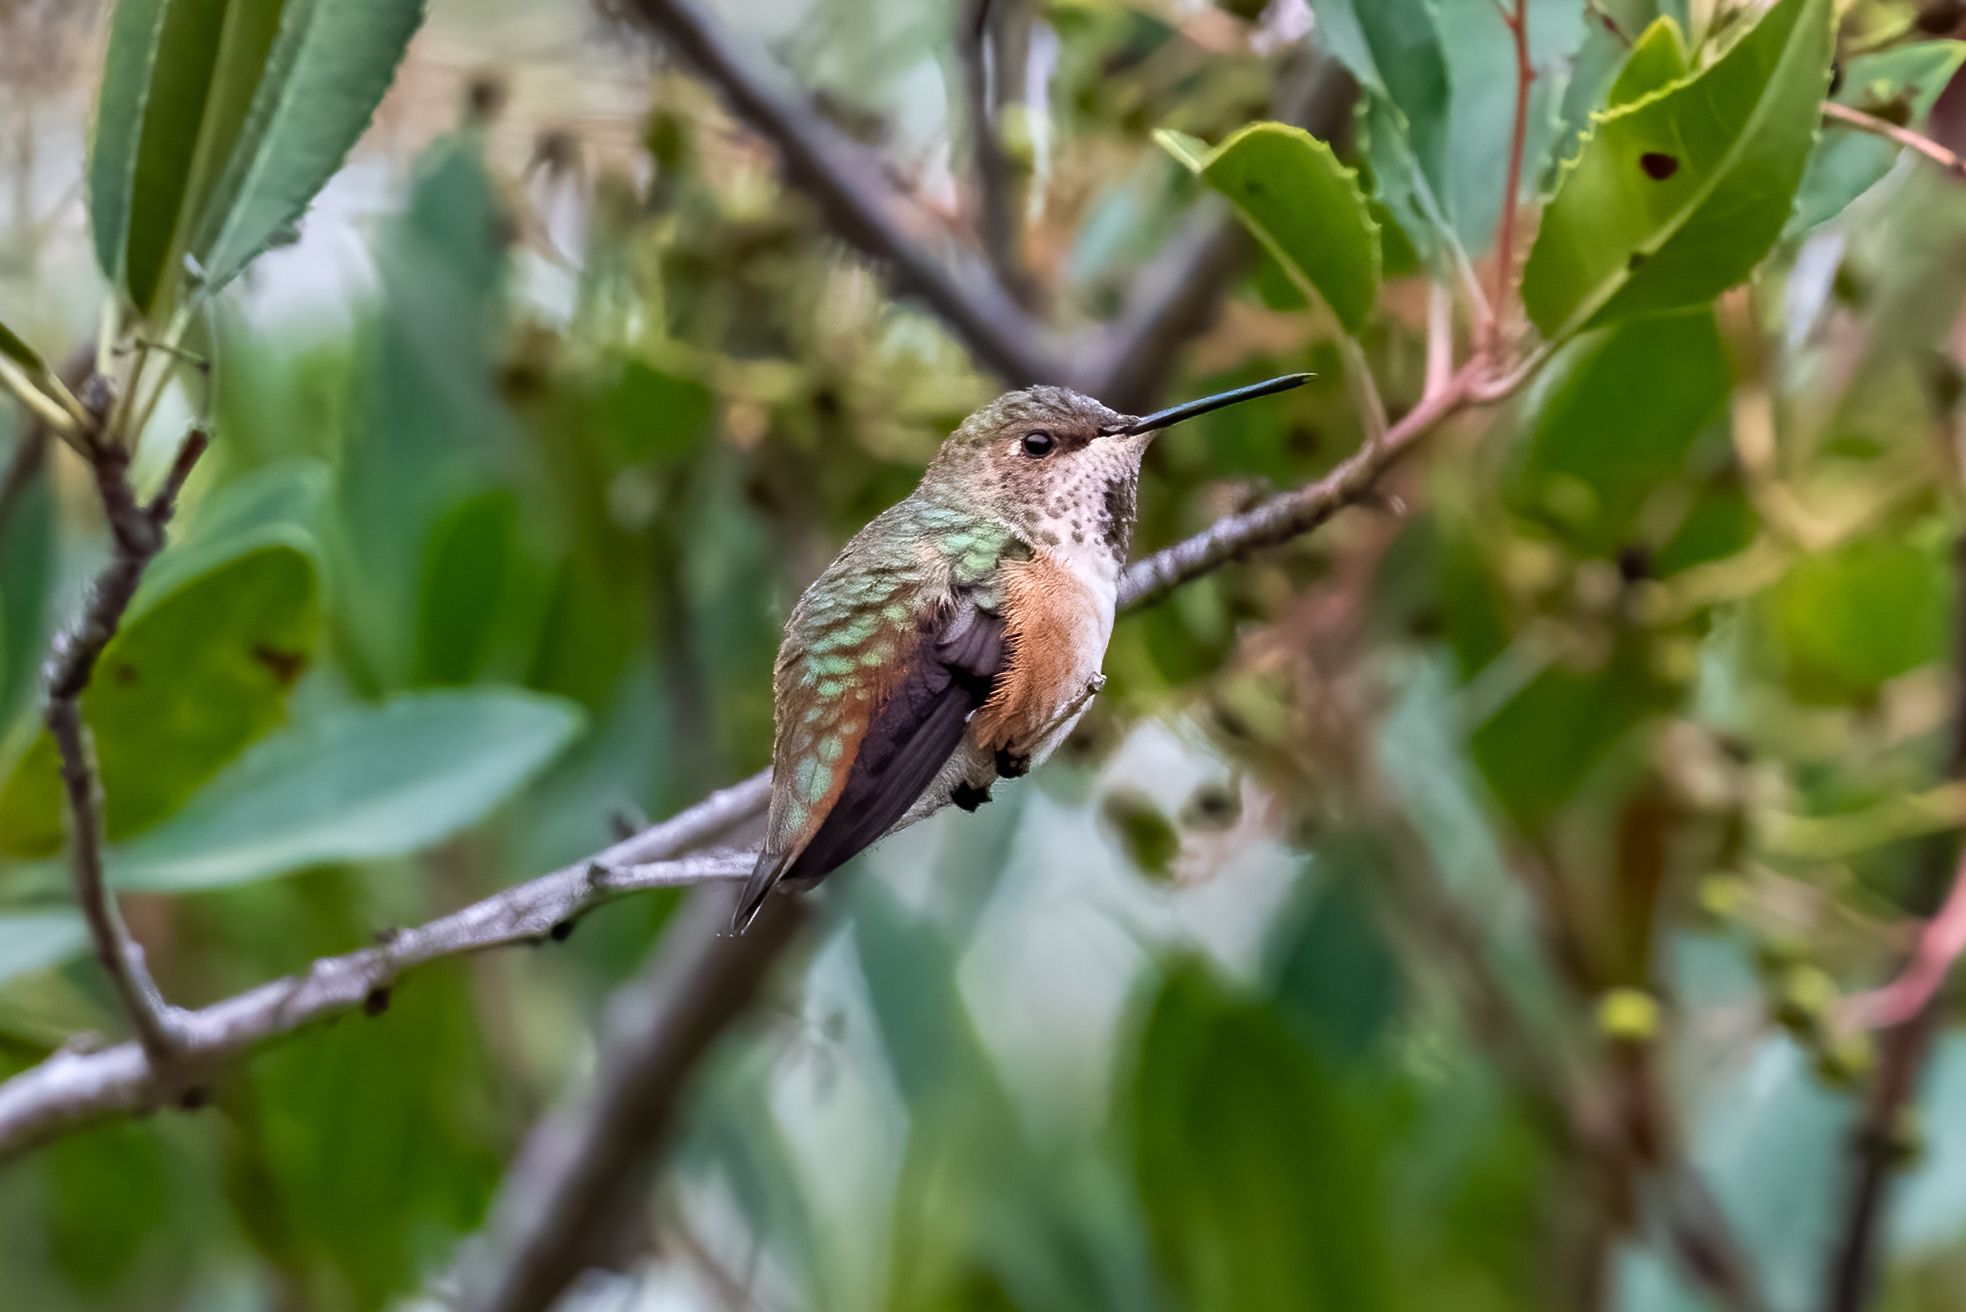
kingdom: Animalia
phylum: Chordata
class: Aves
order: Apodiformes
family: Trochilidae
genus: Selasphorus
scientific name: Selasphorus sasin
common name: Allen's hummingbird
